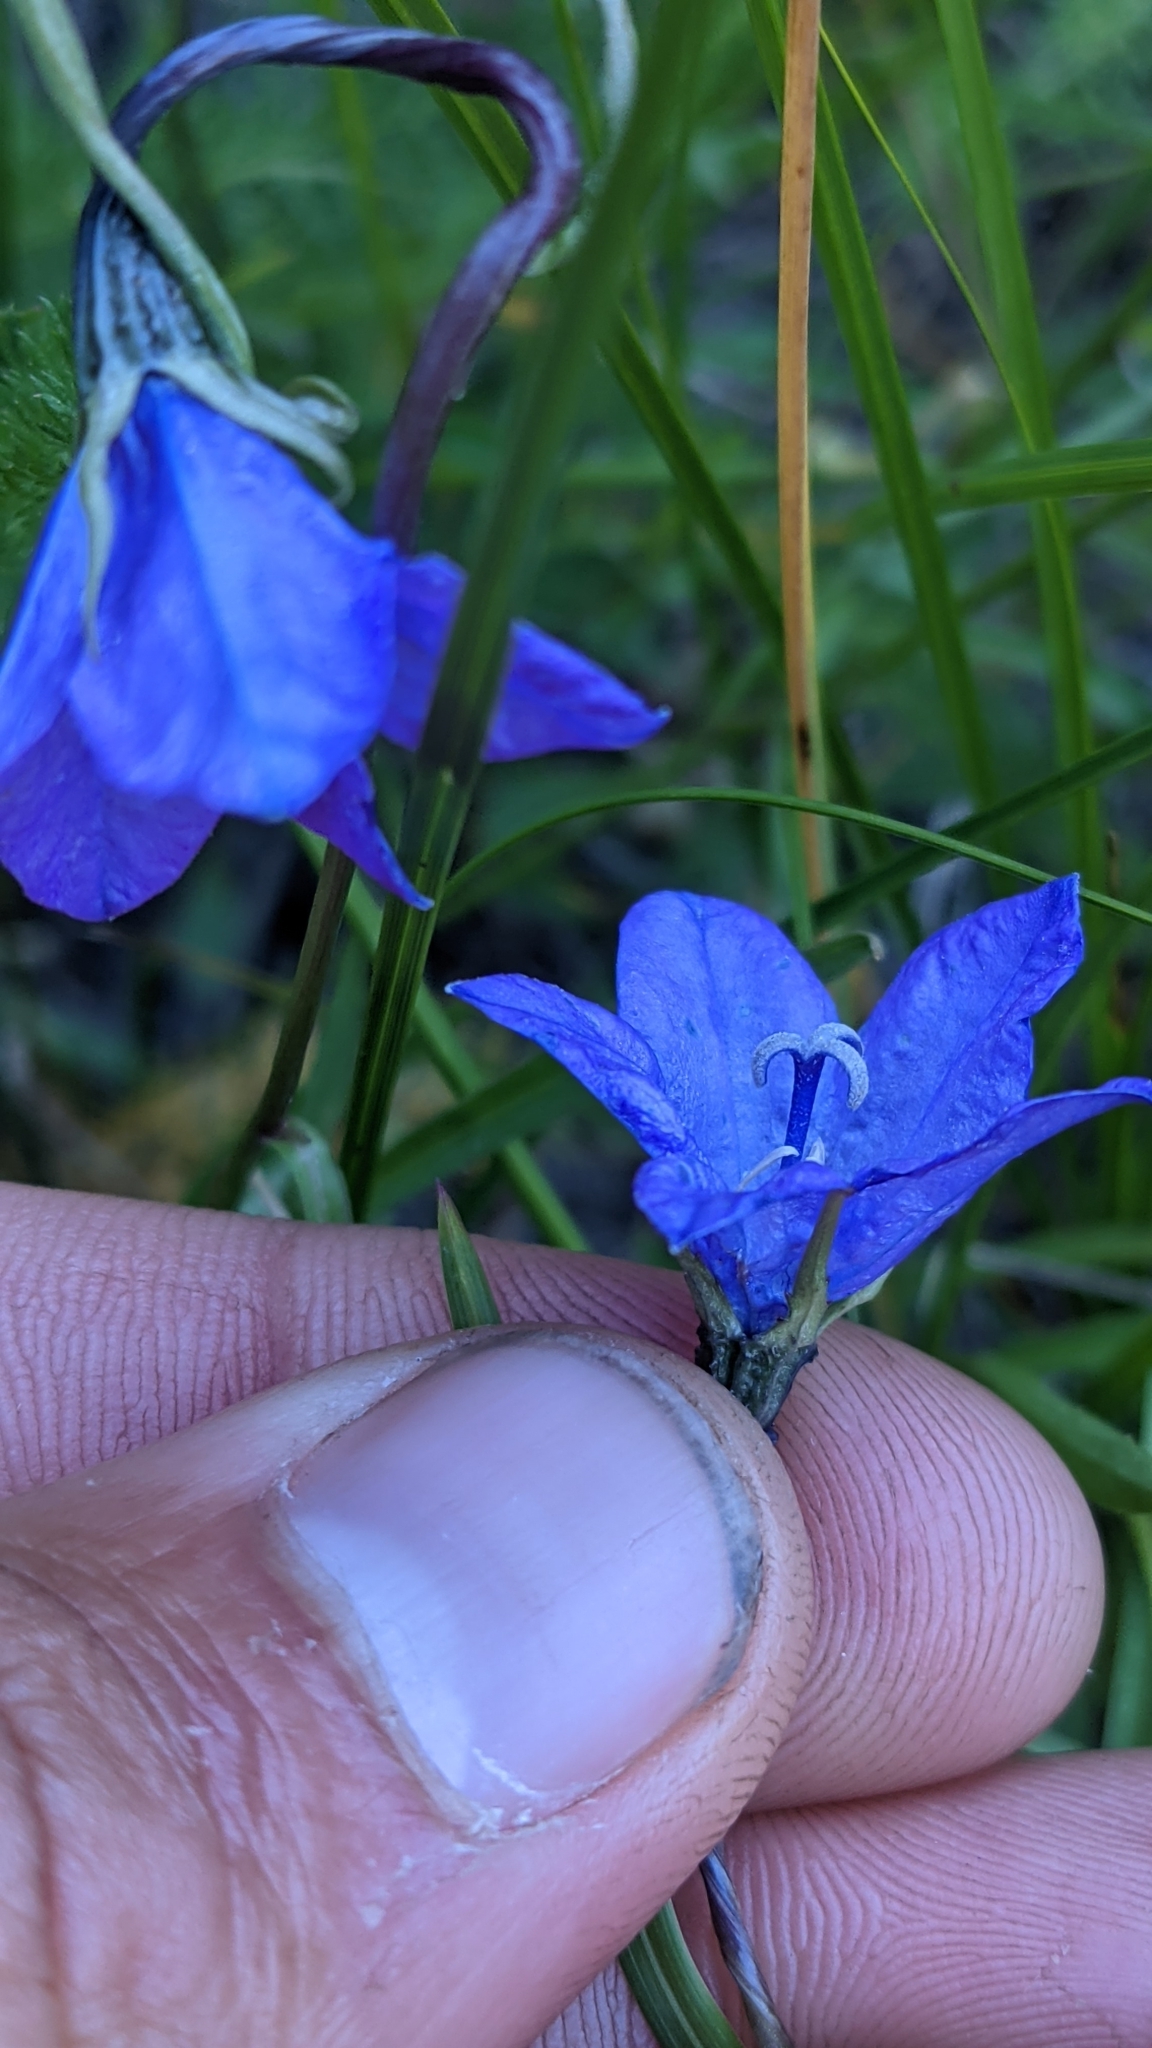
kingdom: Plantae
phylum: Tracheophyta
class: Magnoliopsida
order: Asterales
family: Campanulaceae
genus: Campanula
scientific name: Campanula parryi
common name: Rocky mountain bellflower
